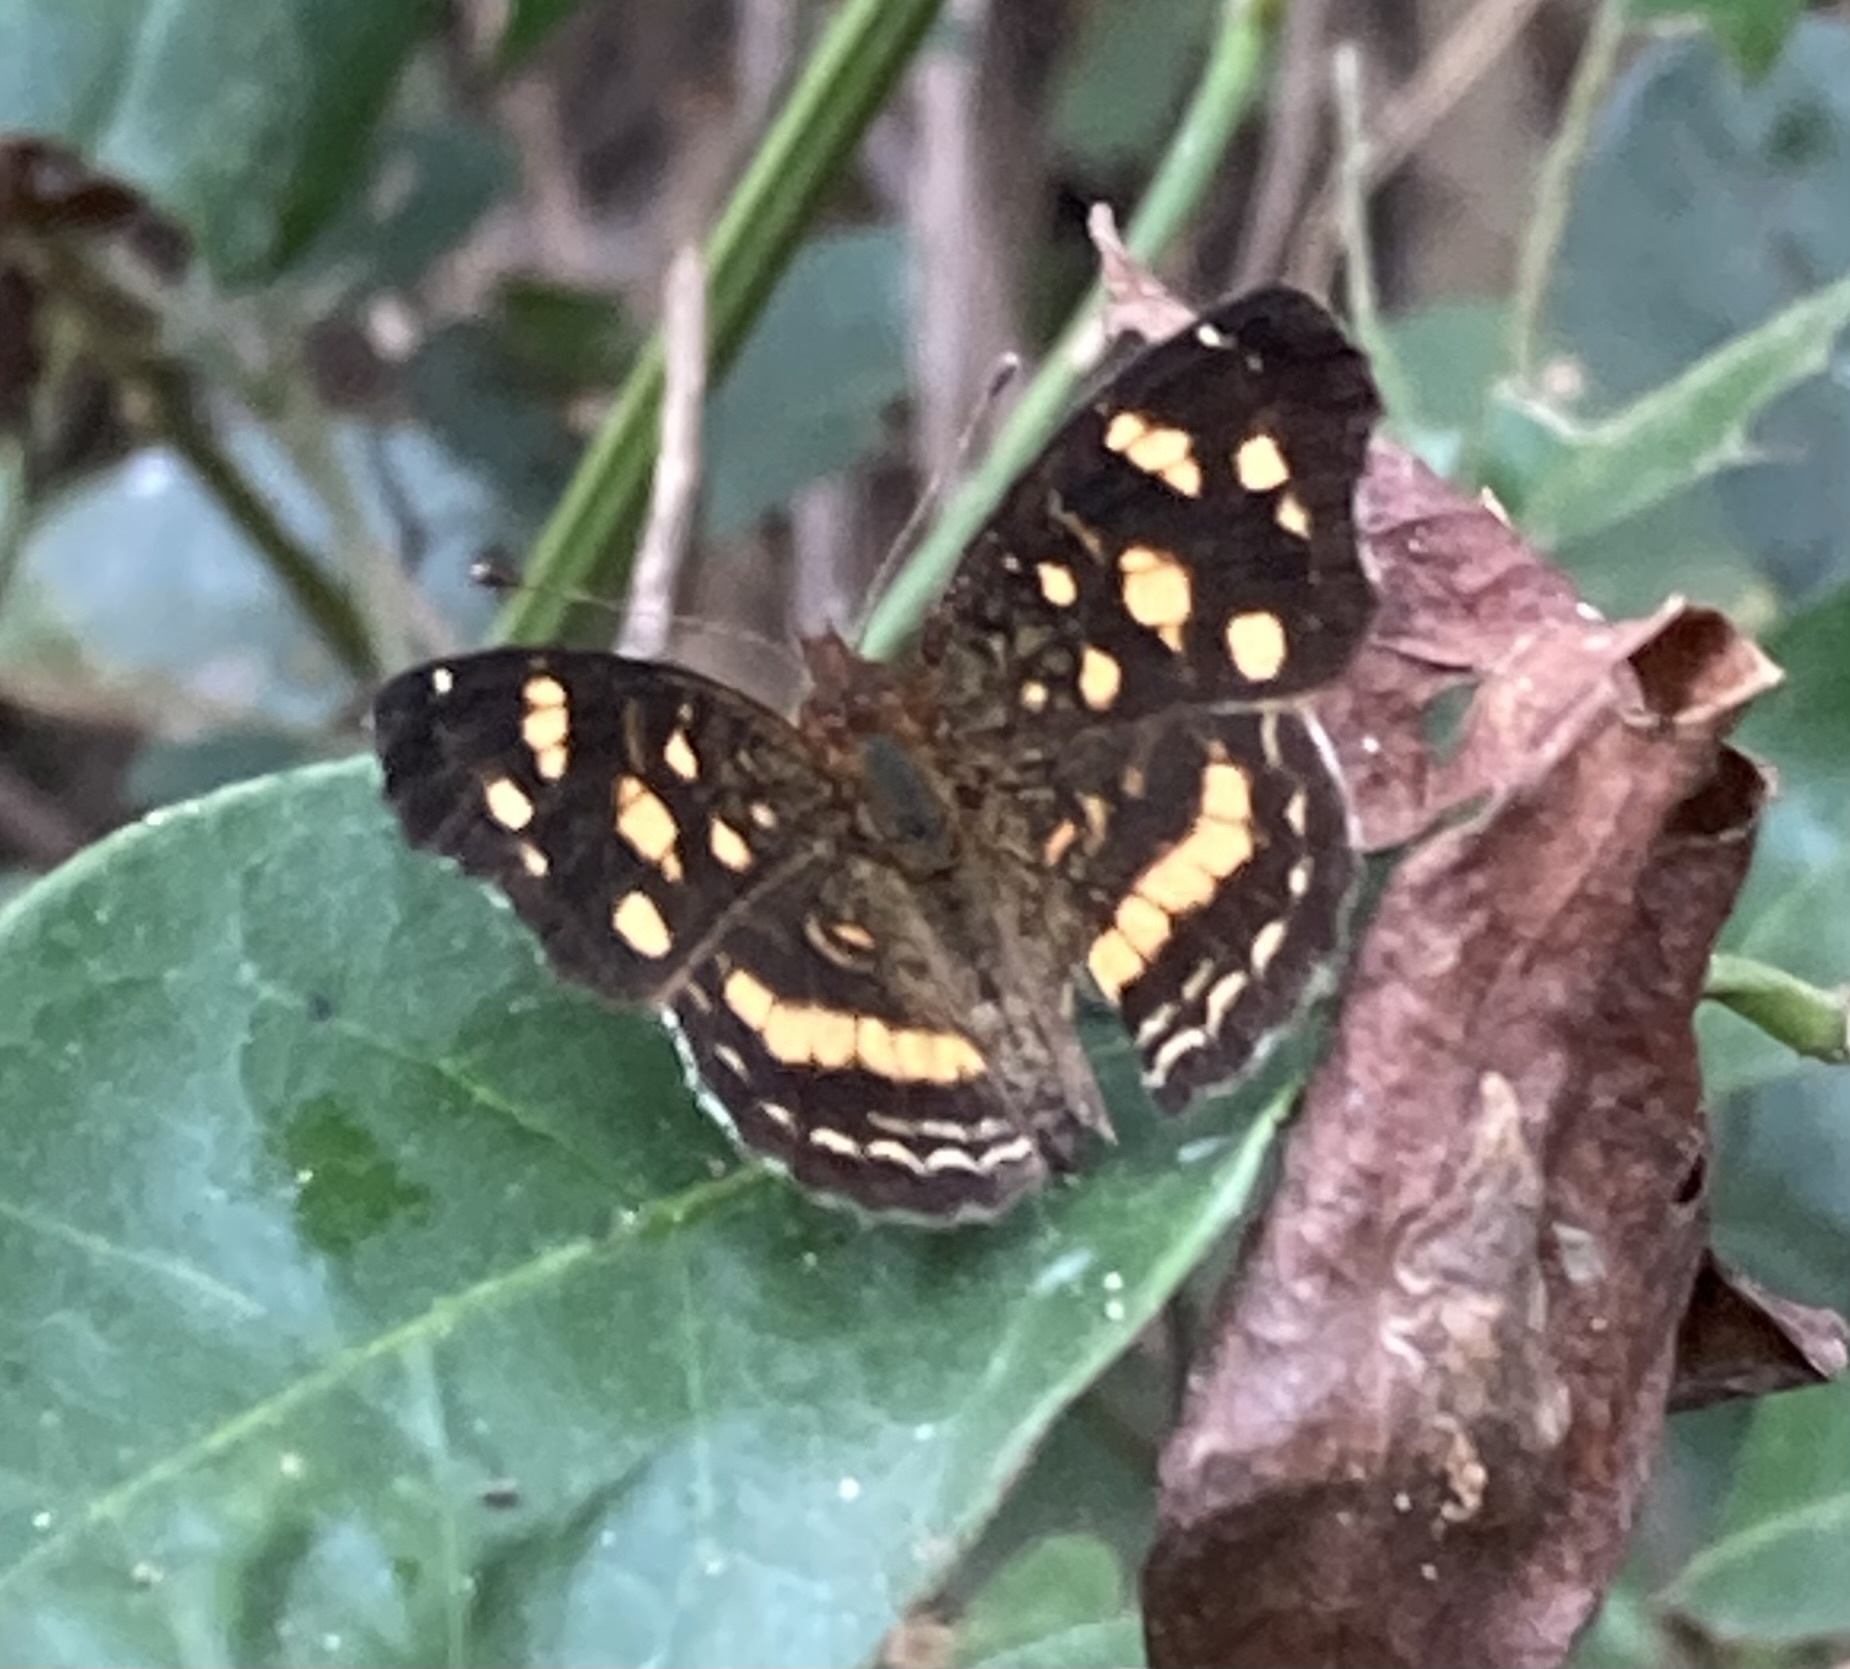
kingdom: Animalia
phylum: Arthropoda
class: Insecta
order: Lepidoptera
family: Nymphalidae
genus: Anthanassa
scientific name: Anthanassa tulcis
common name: Pale-banded crescent
